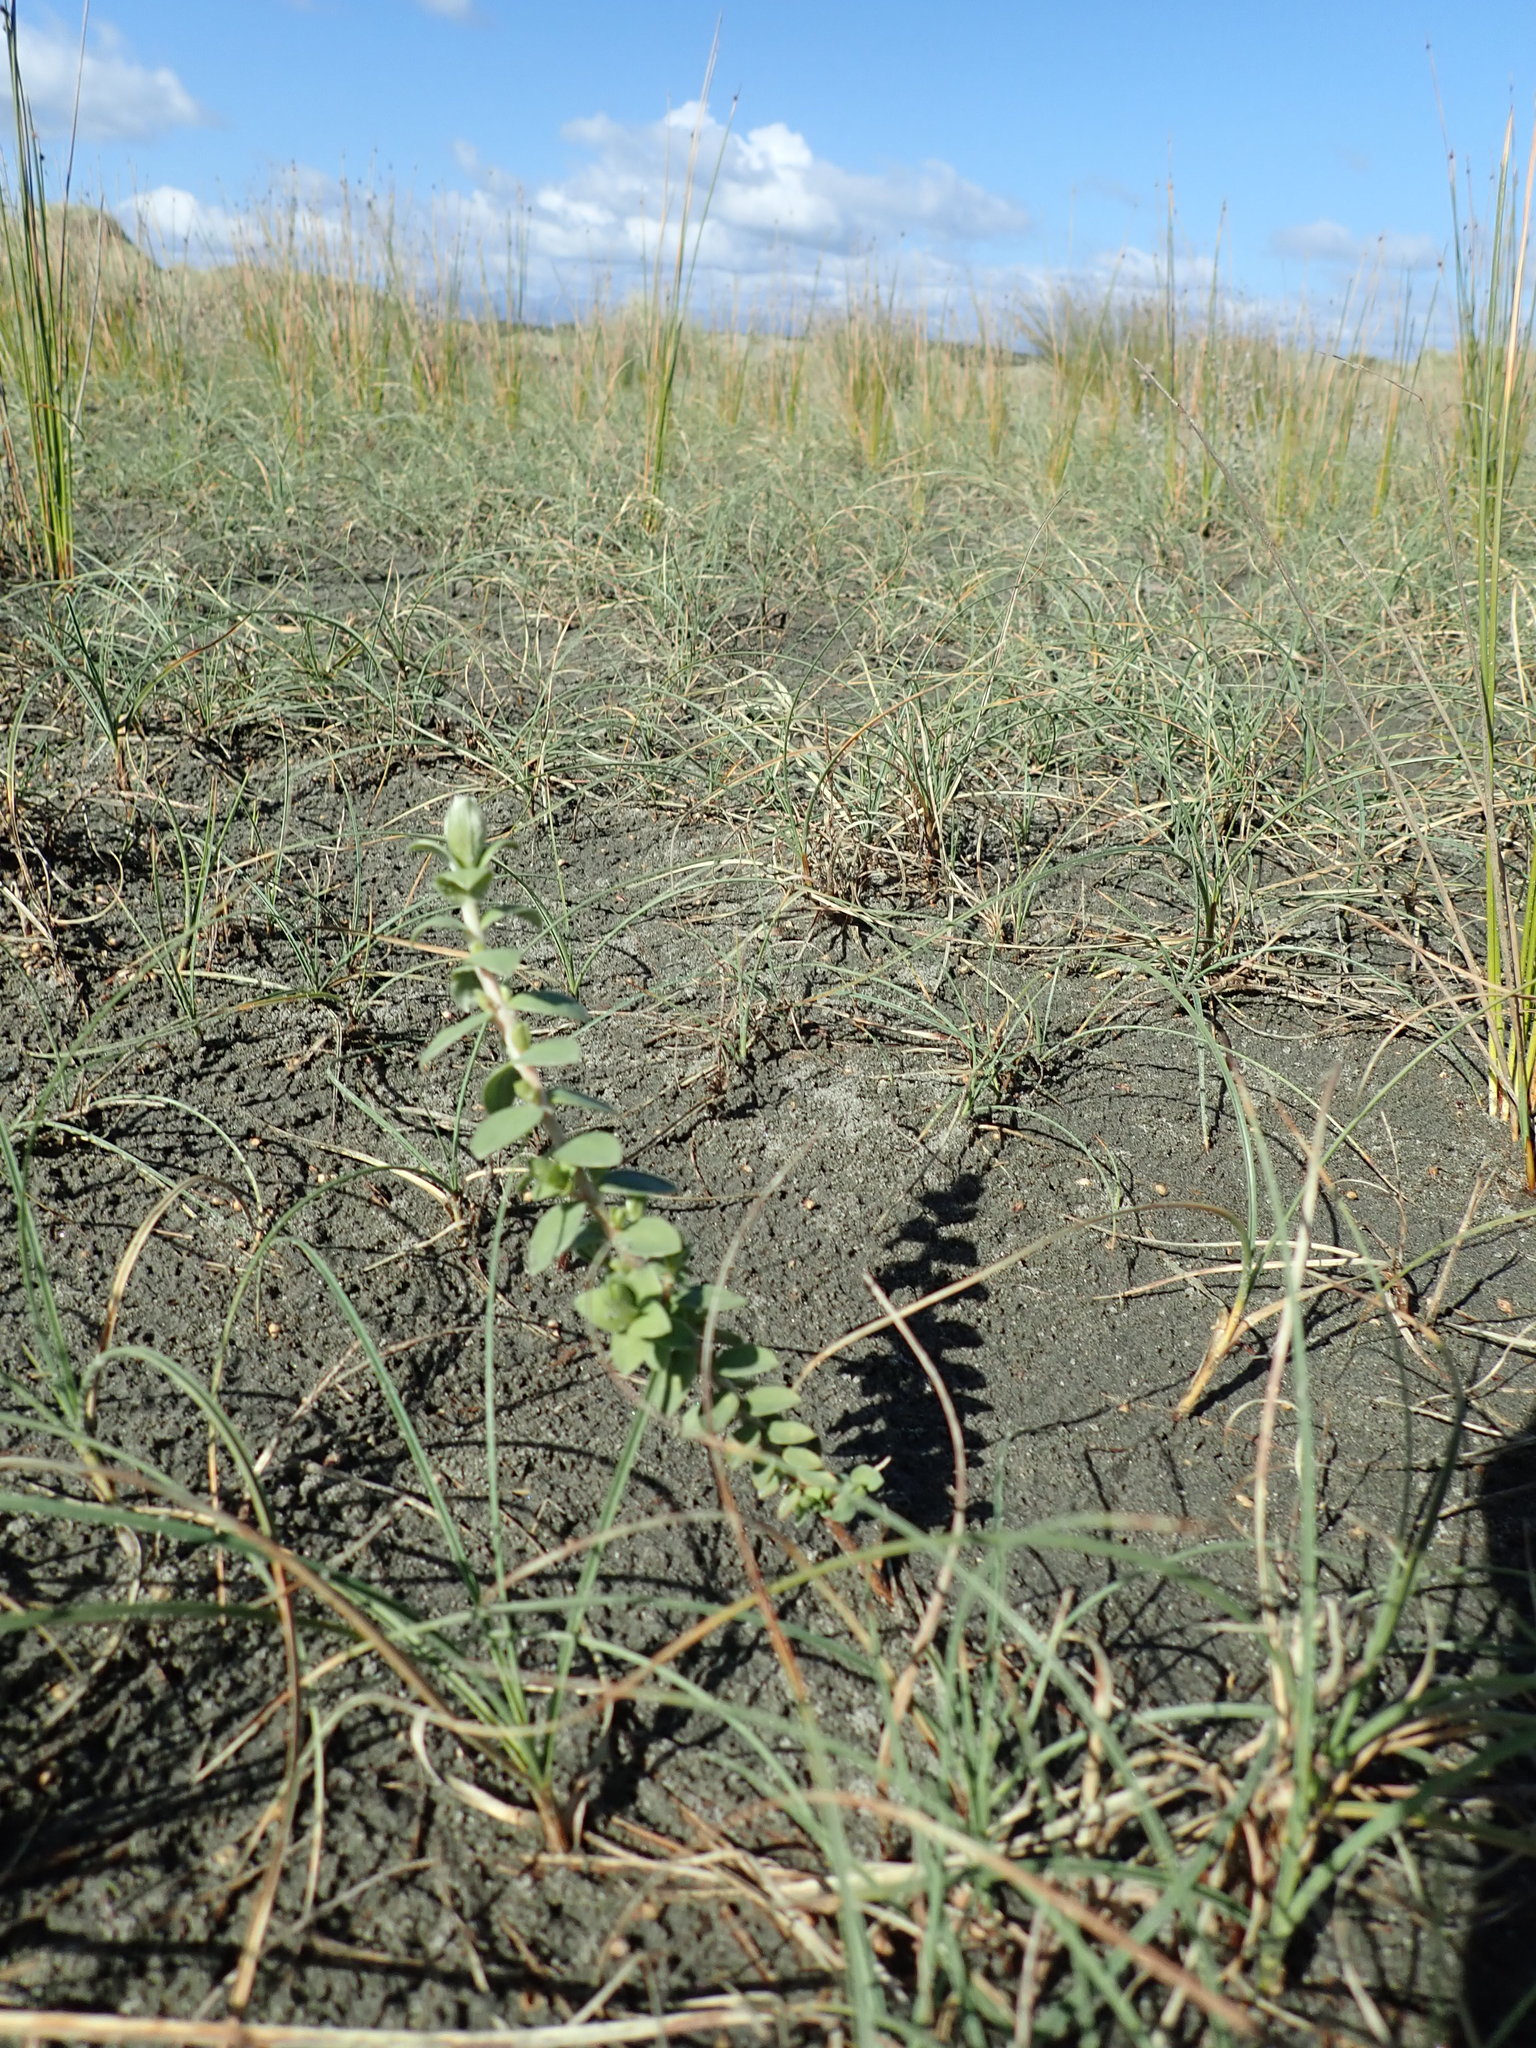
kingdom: Plantae
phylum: Tracheophyta
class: Magnoliopsida
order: Malvales
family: Thymelaeaceae
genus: Pimelea
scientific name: Pimelea villosa
